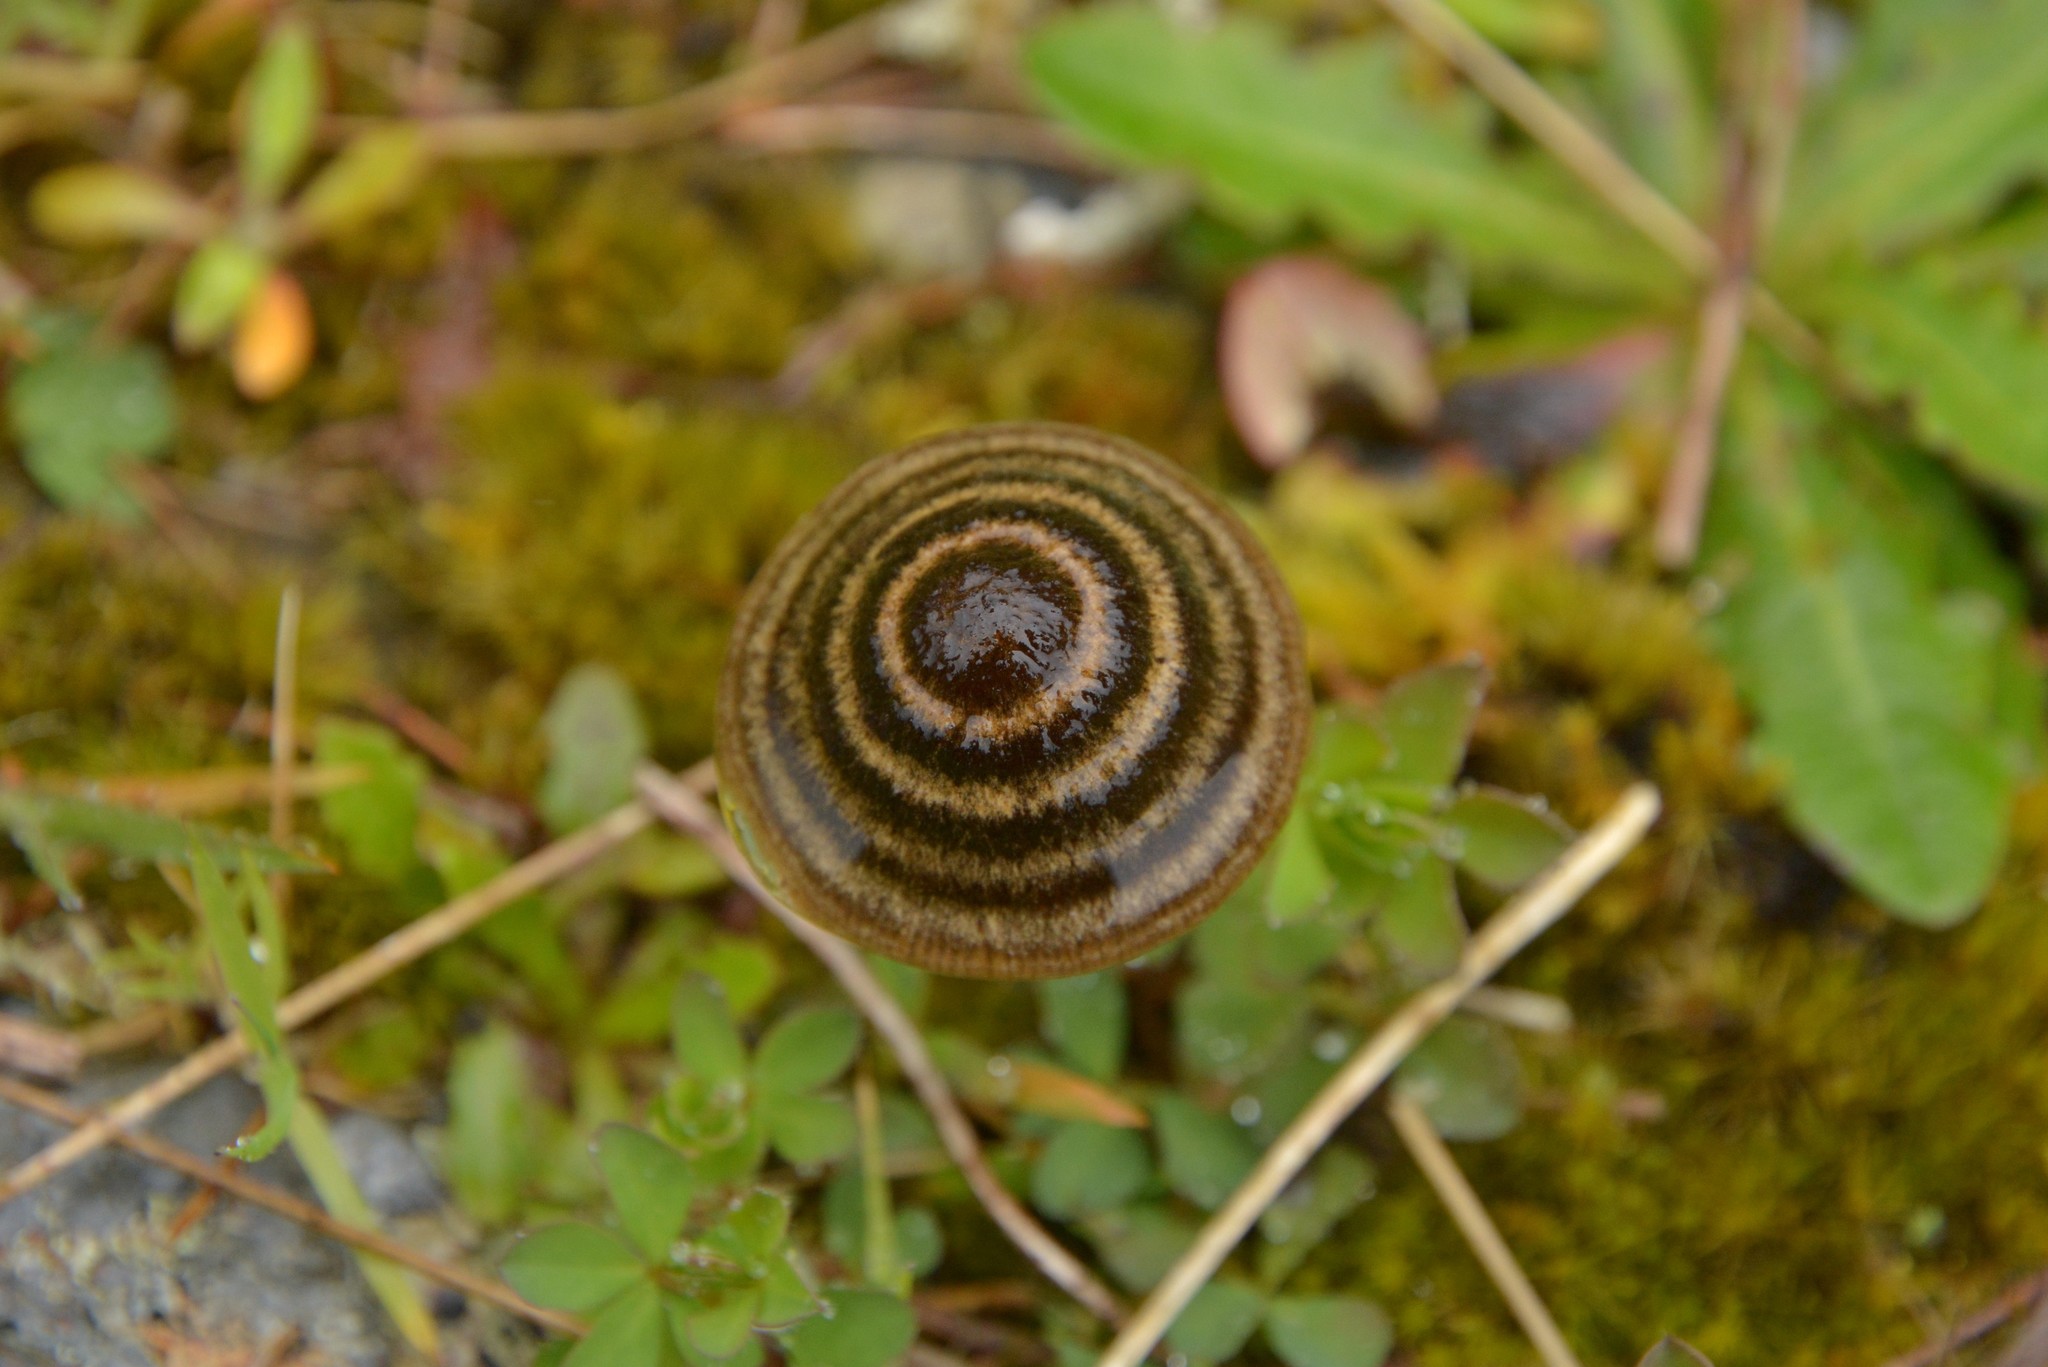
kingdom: Fungi
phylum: Basidiomycota
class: Agaricomycetes
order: Agaricales
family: Entolomataceae
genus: Entoloma
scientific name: Entoloma perzonatum
